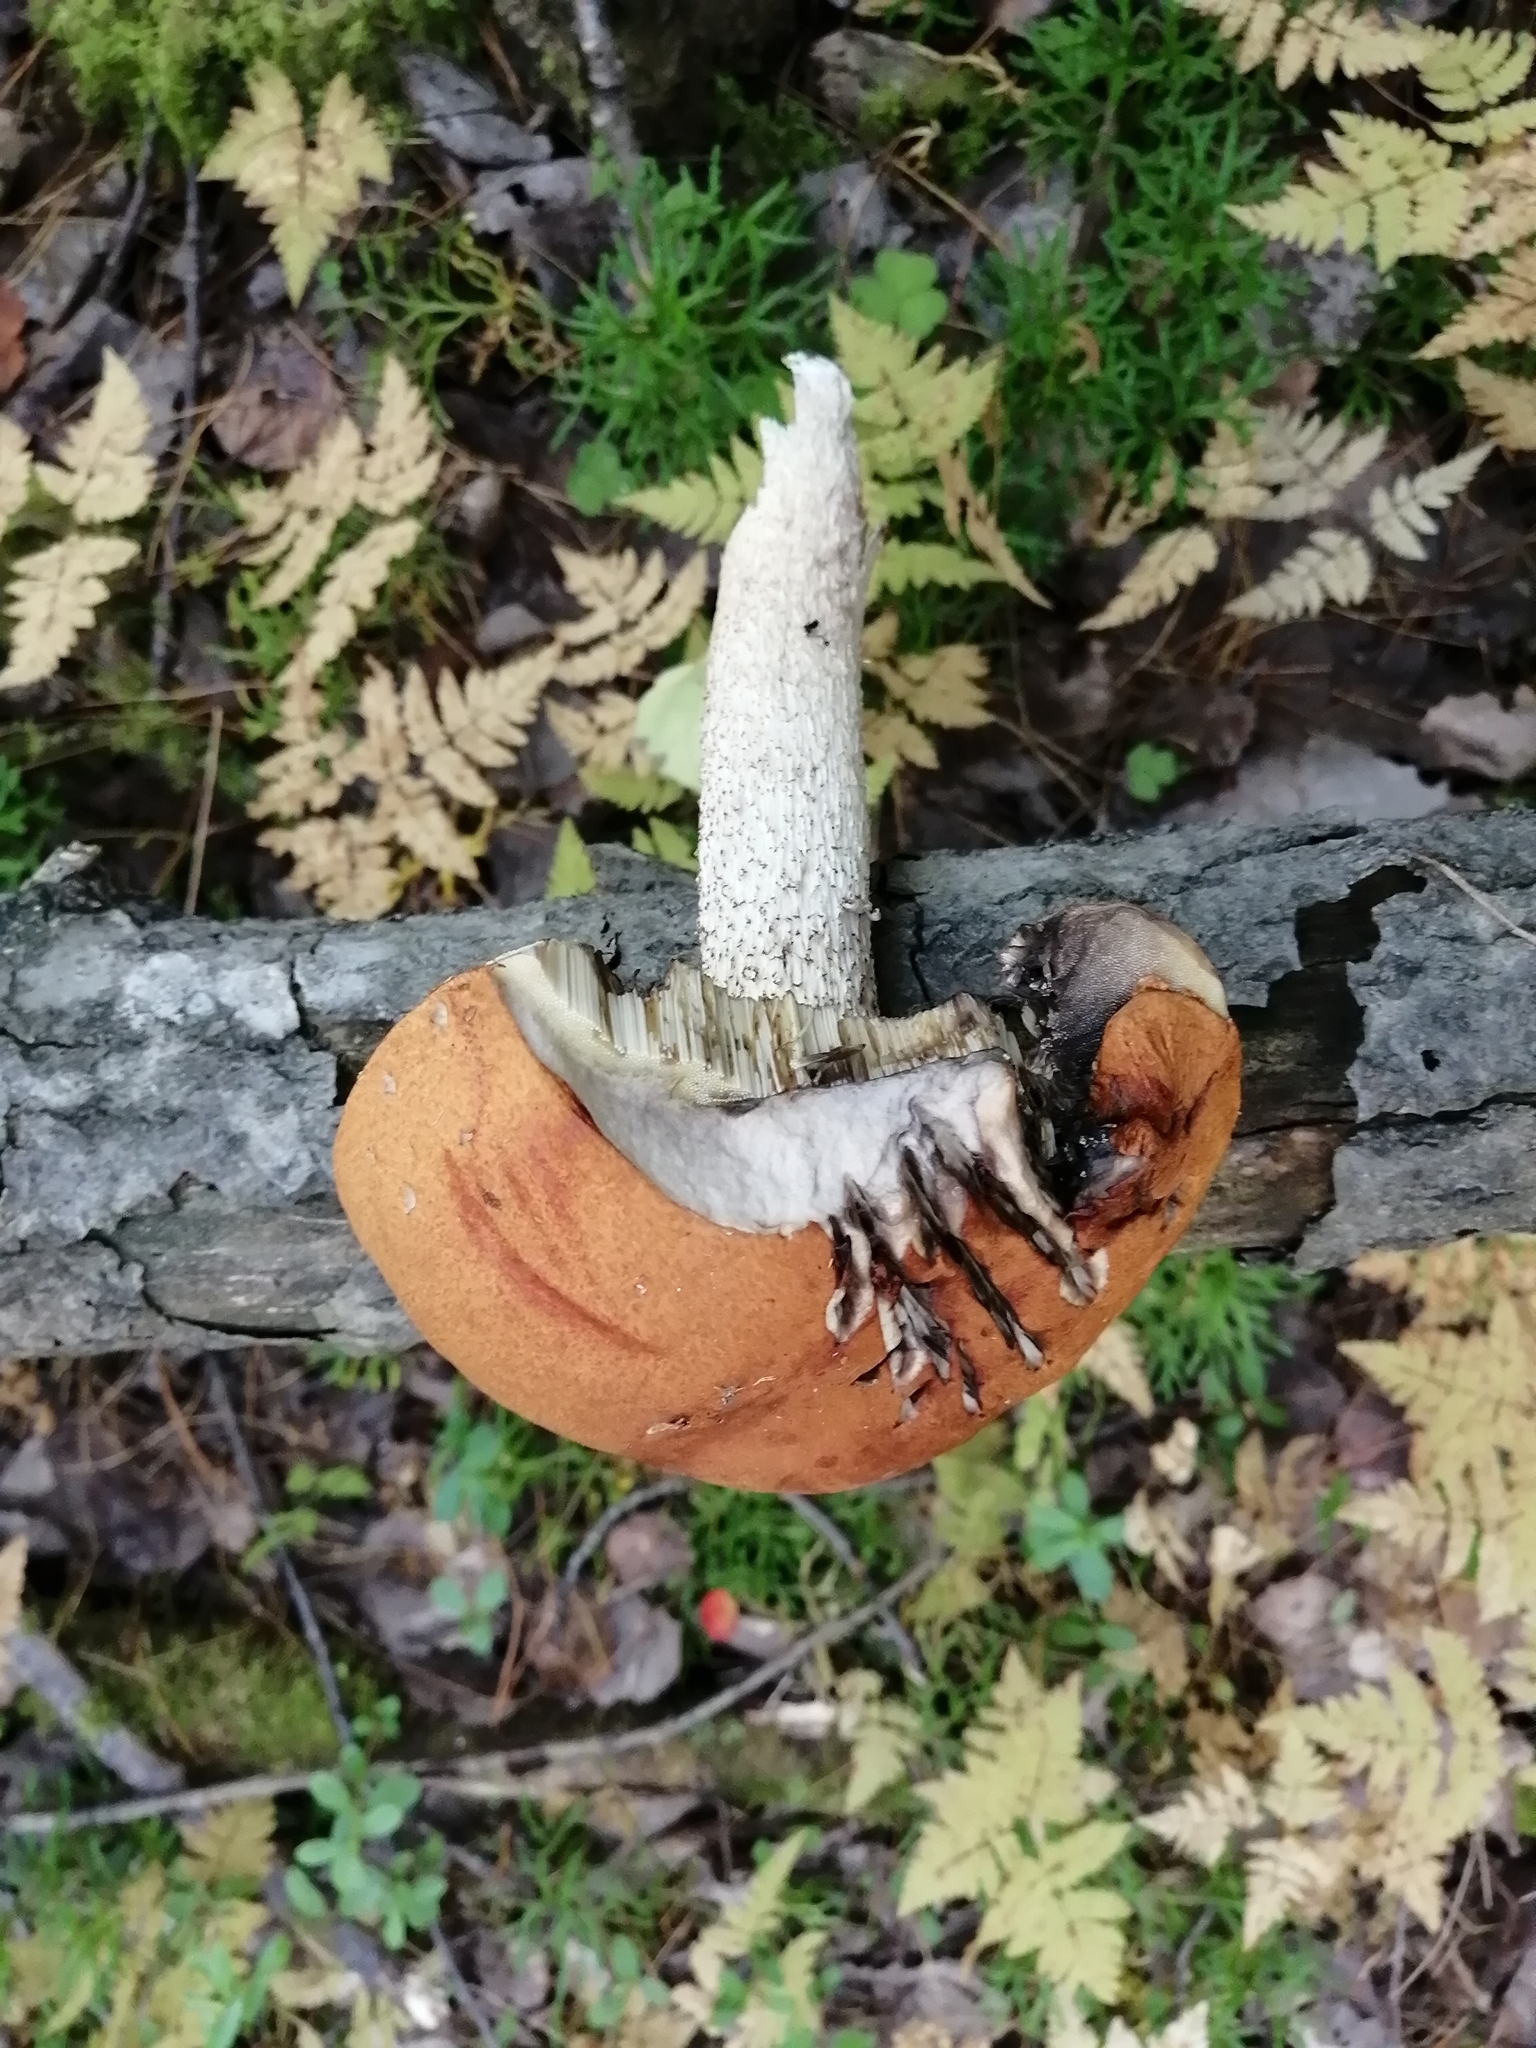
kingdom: Animalia
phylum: Chordata
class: Mammalia
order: Rodentia
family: Sciuridae
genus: Sciurus
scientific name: Sciurus vulgaris
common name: Eurasian red squirrel
